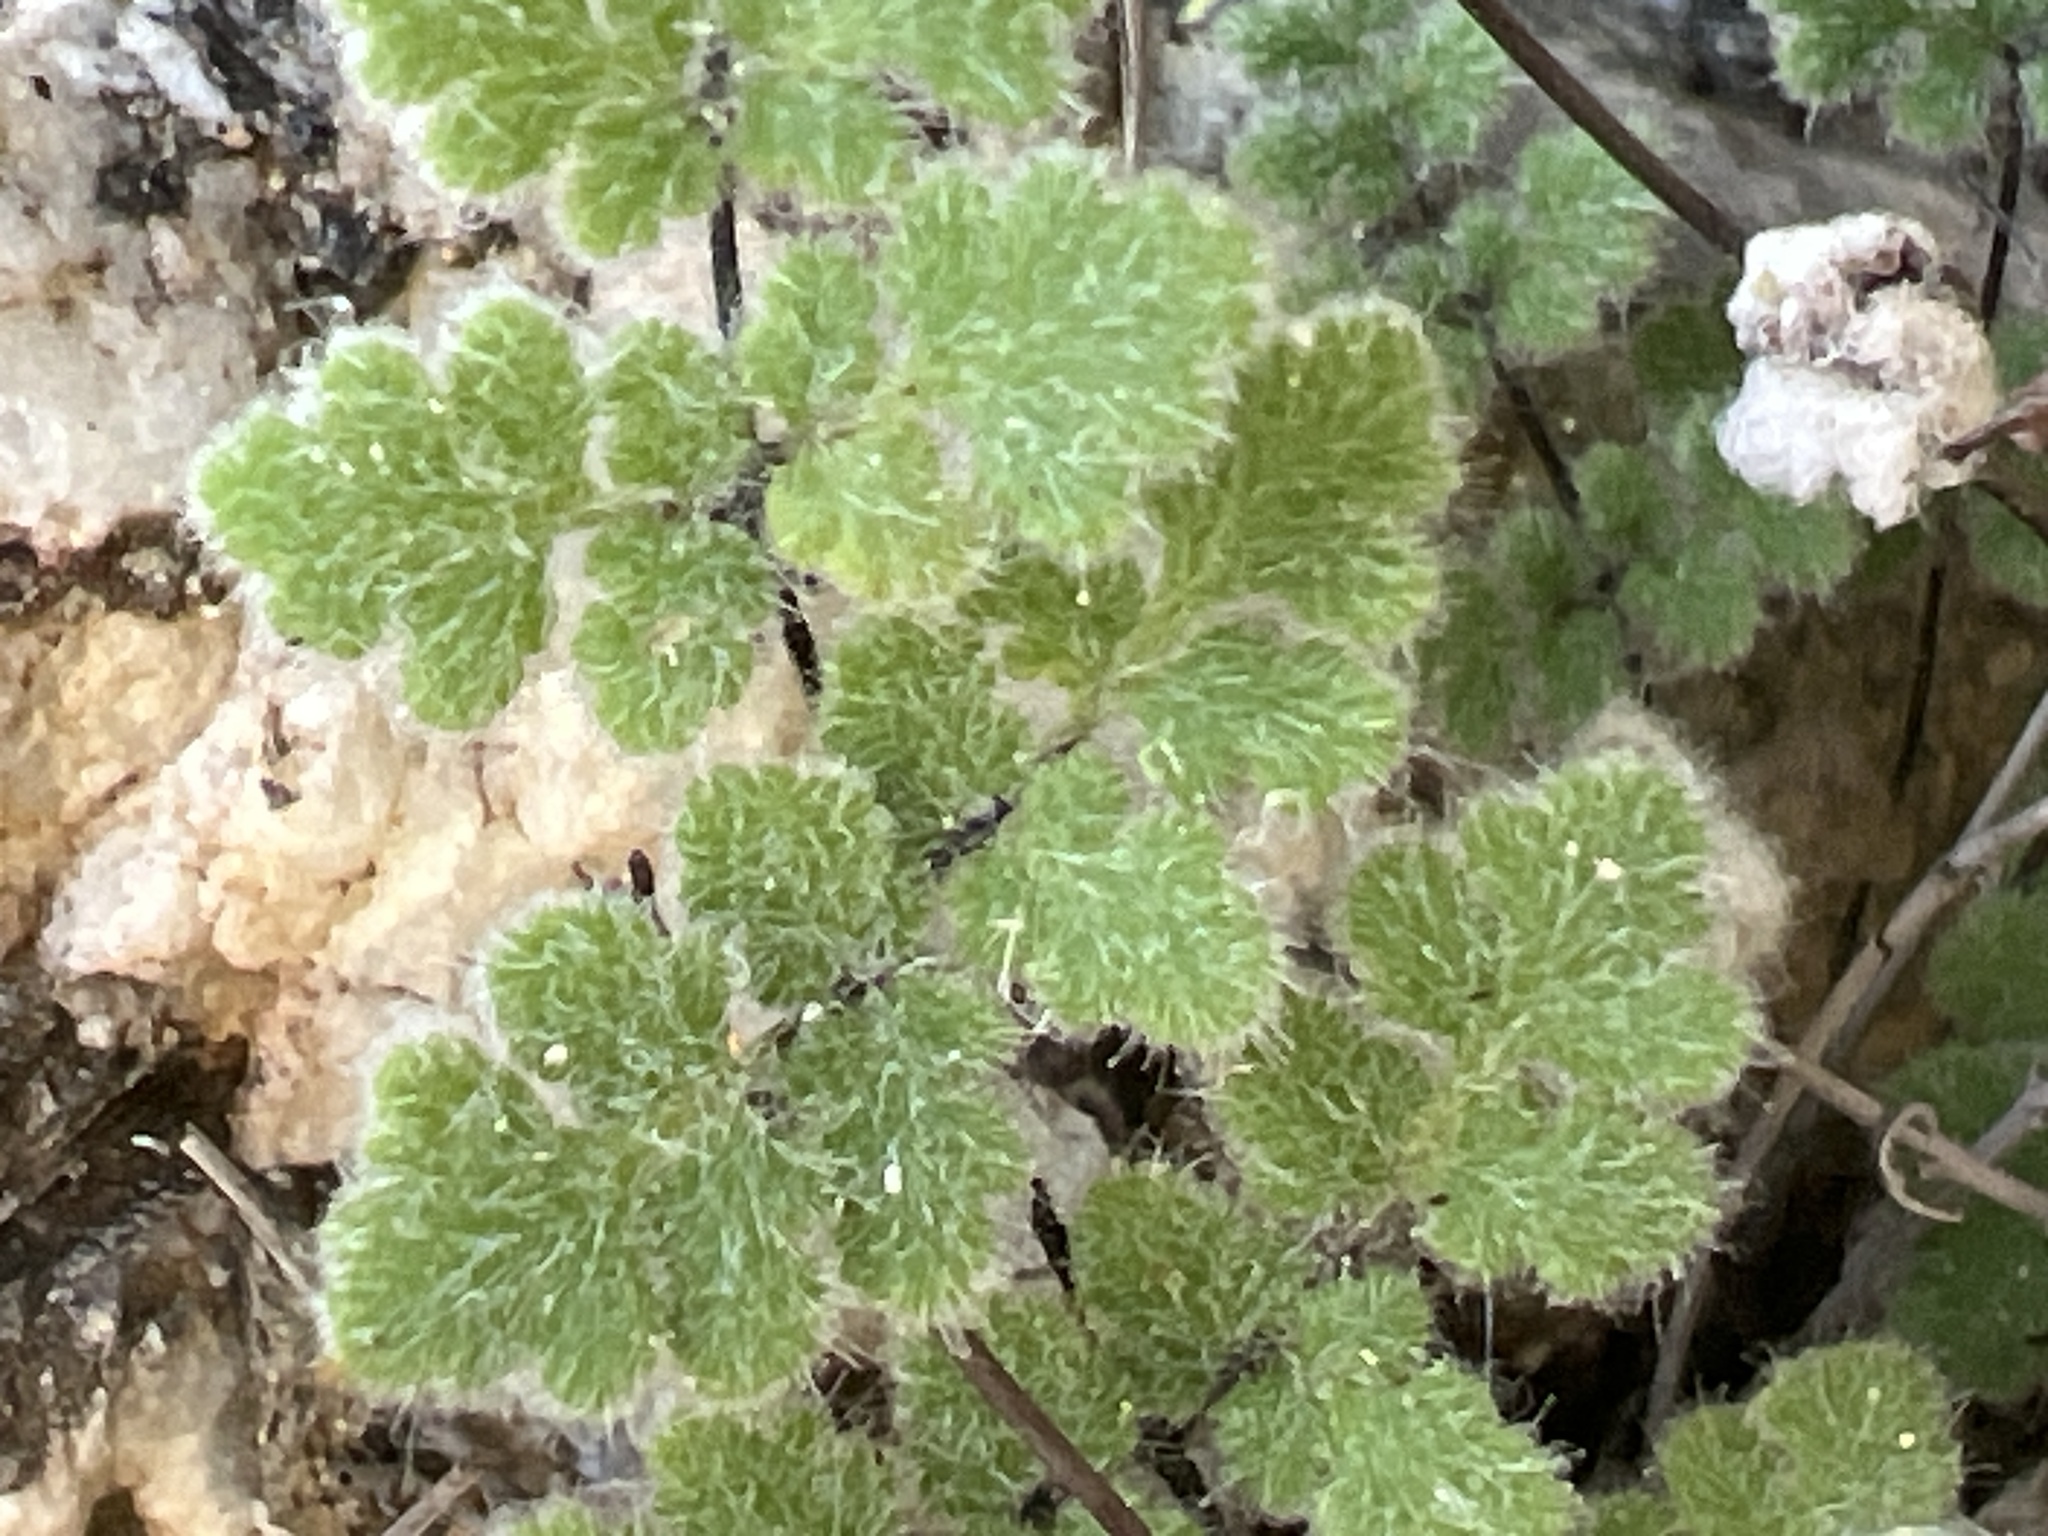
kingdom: Plantae
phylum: Tracheophyta
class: Polypodiopsida
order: Polypodiales
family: Pteridaceae
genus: Myriopteris
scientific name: Myriopteris parryi
